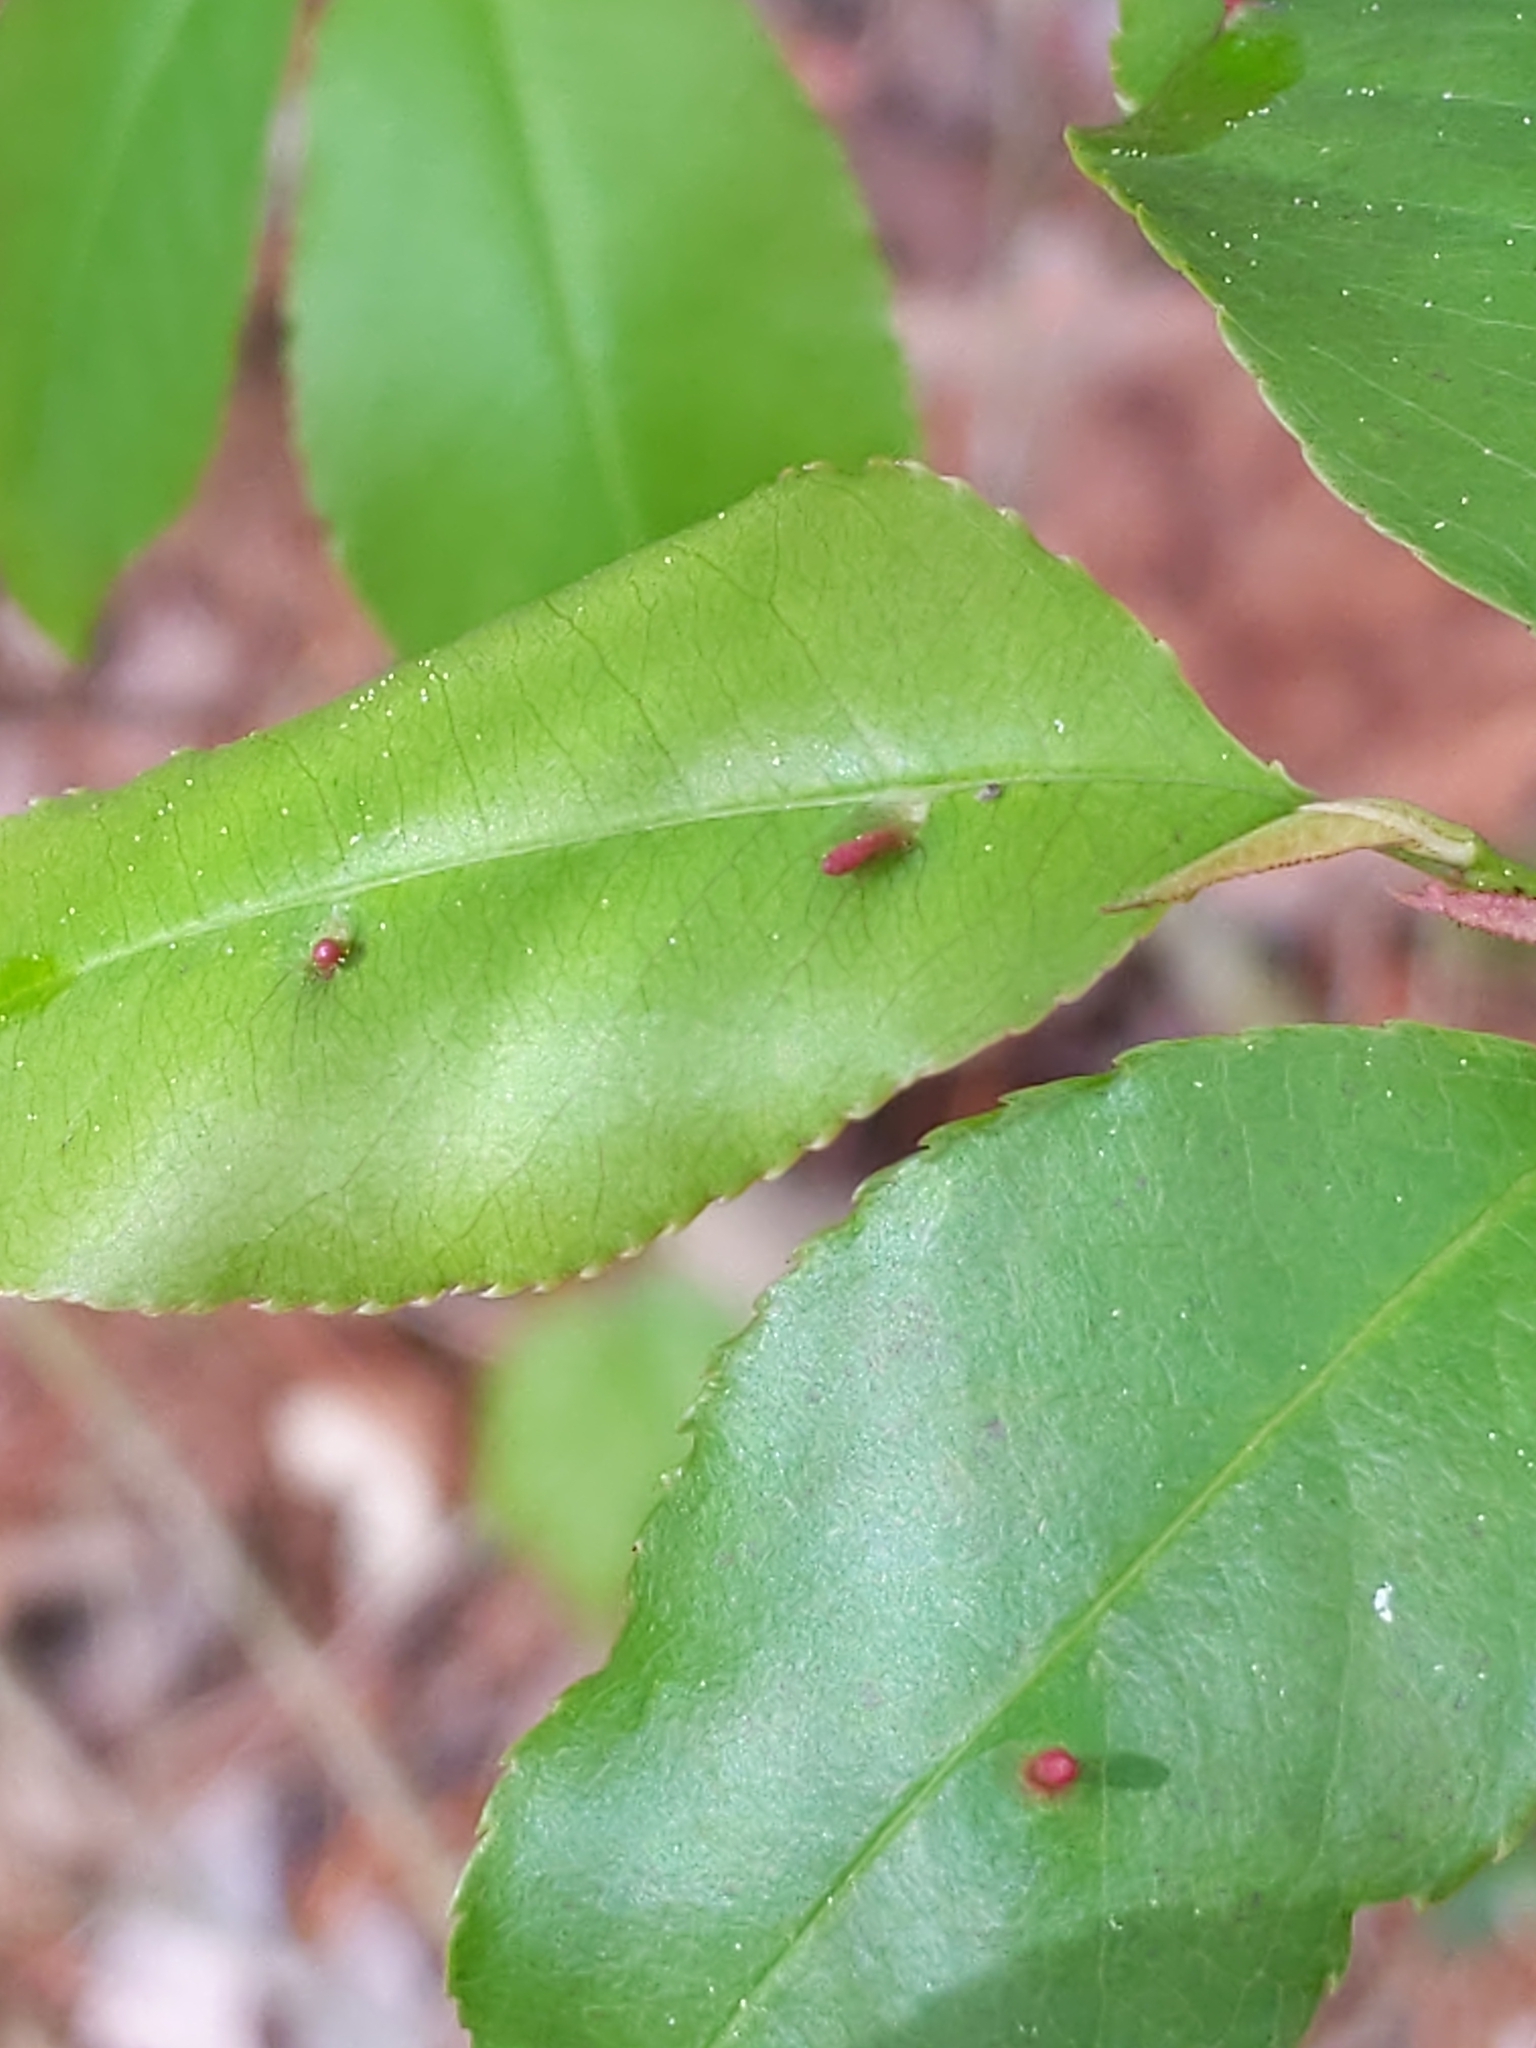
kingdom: Animalia
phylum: Arthropoda
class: Arachnida
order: Trombidiformes
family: Eriophyidae
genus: Eriophyes
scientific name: Eriophyes
